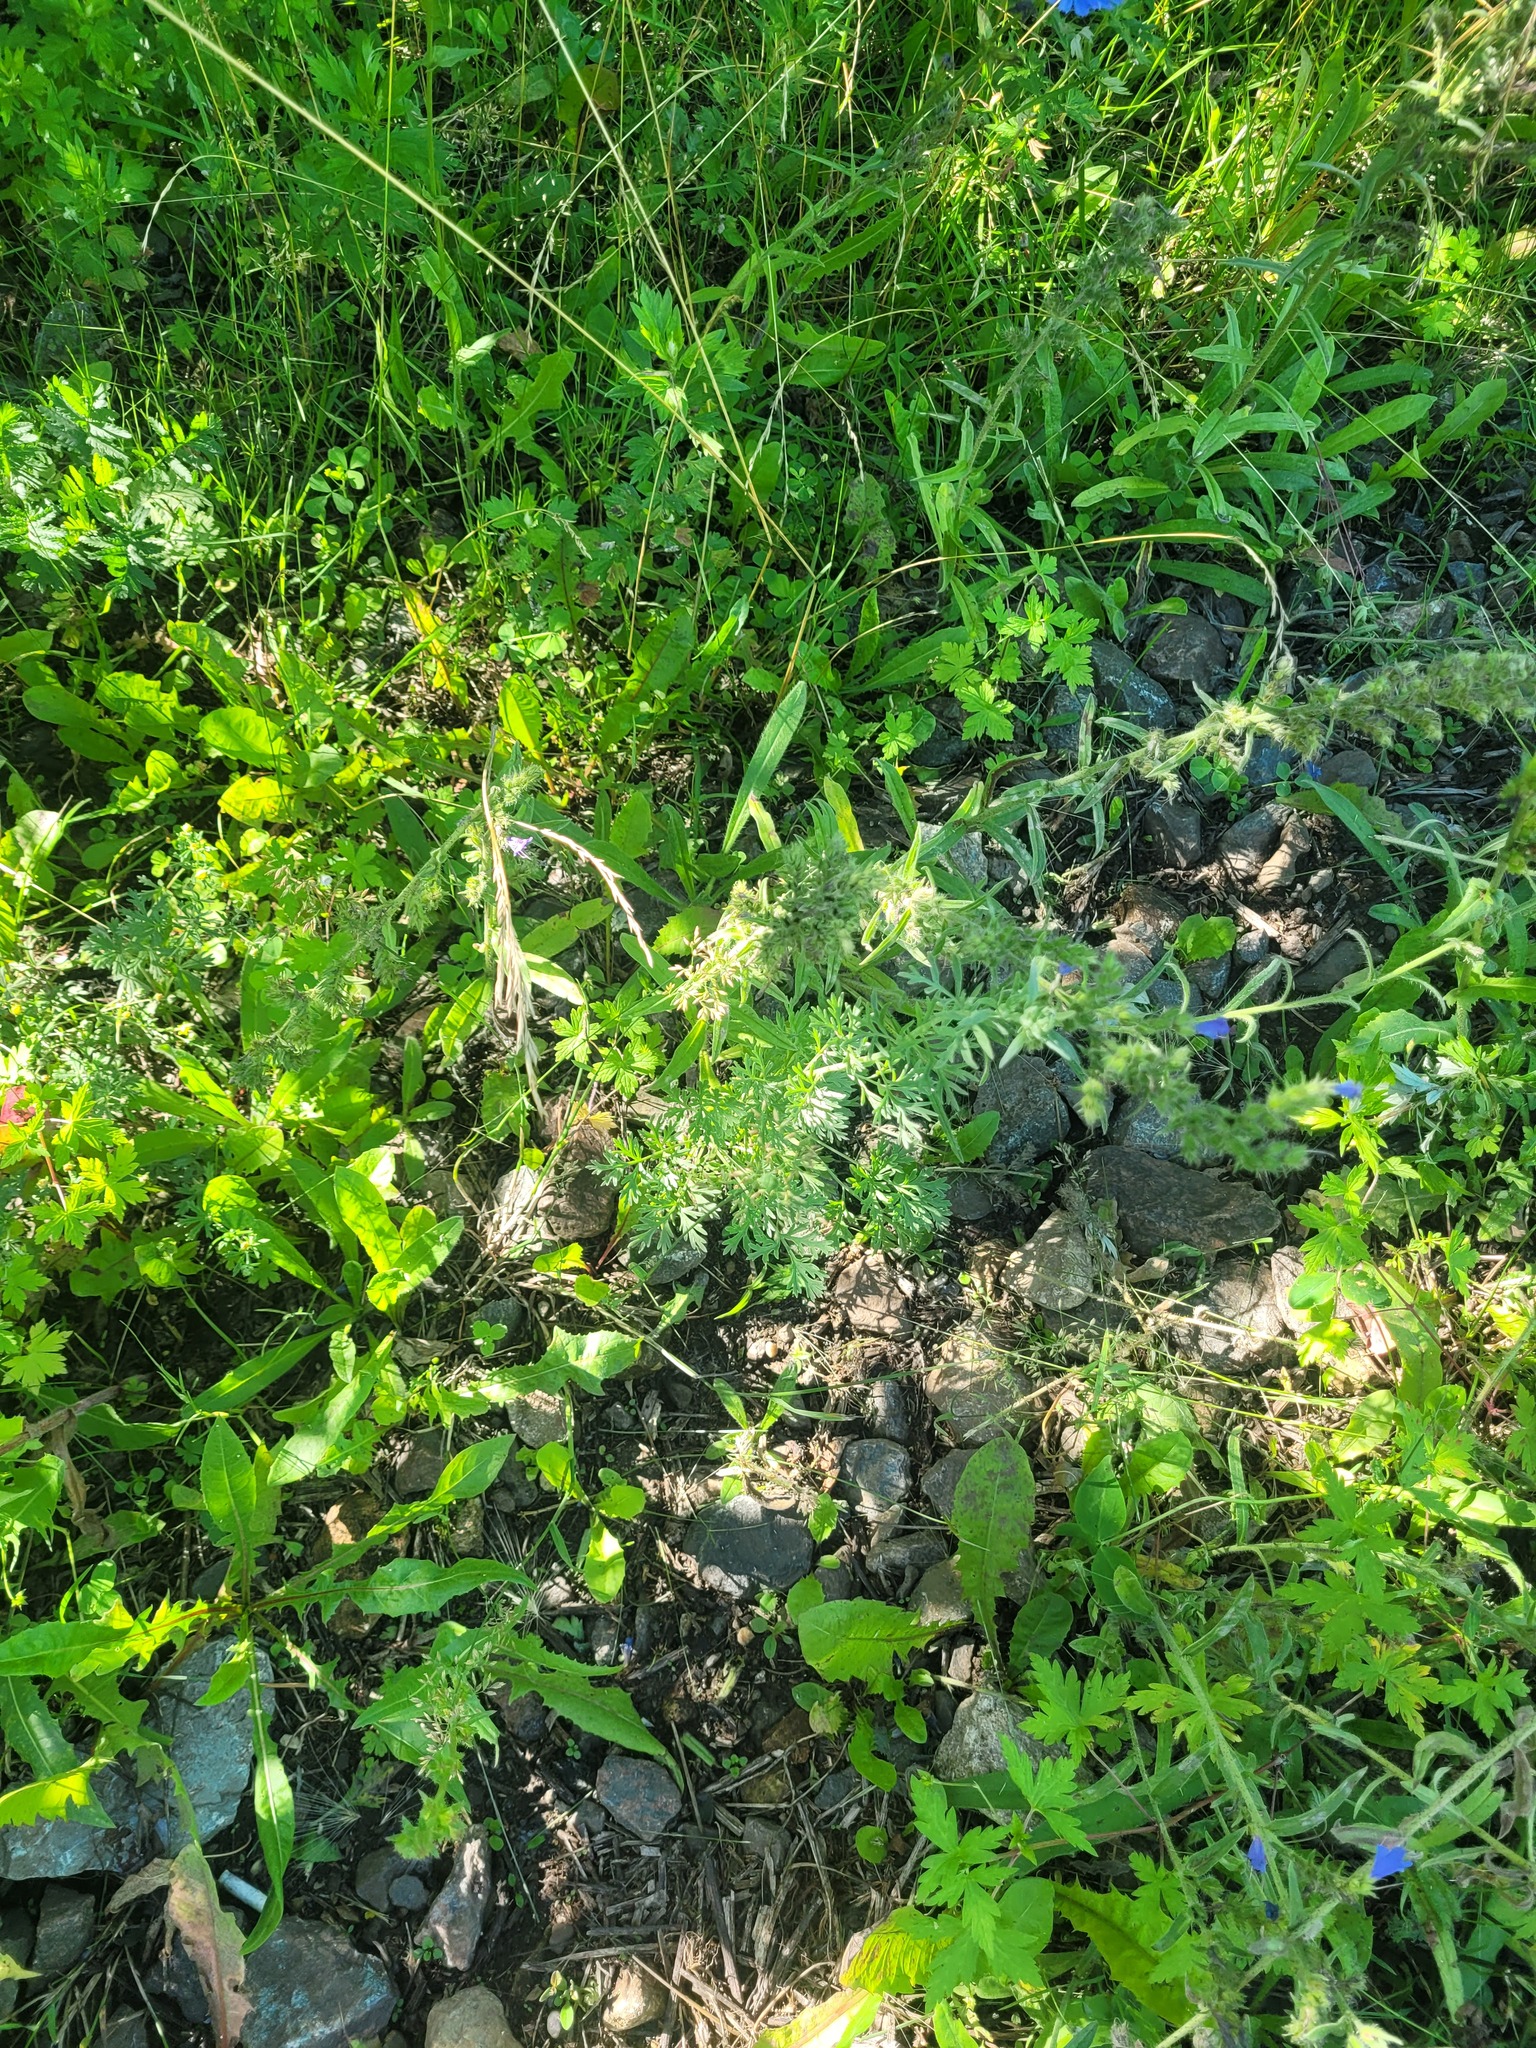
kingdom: Plantae
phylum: Tracheophyta
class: Magnoliopsida
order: Asterales
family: Asteraceae
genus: Artemisia
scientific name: Artemisia absinthium
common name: Wormwood
